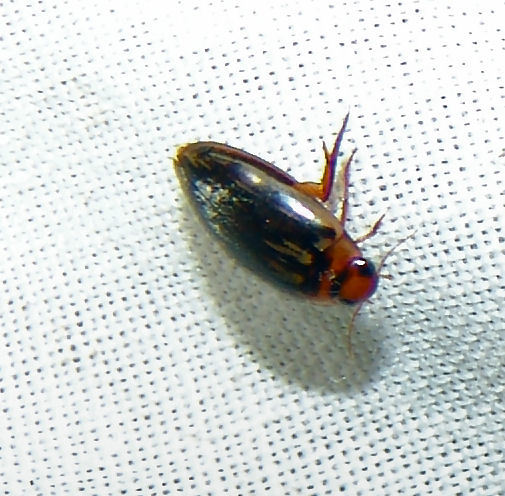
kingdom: Animalia
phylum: Arthropoda
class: Insecta
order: Coleoptera
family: Dytiscidae
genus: Coptotomus
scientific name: Coptotomus
